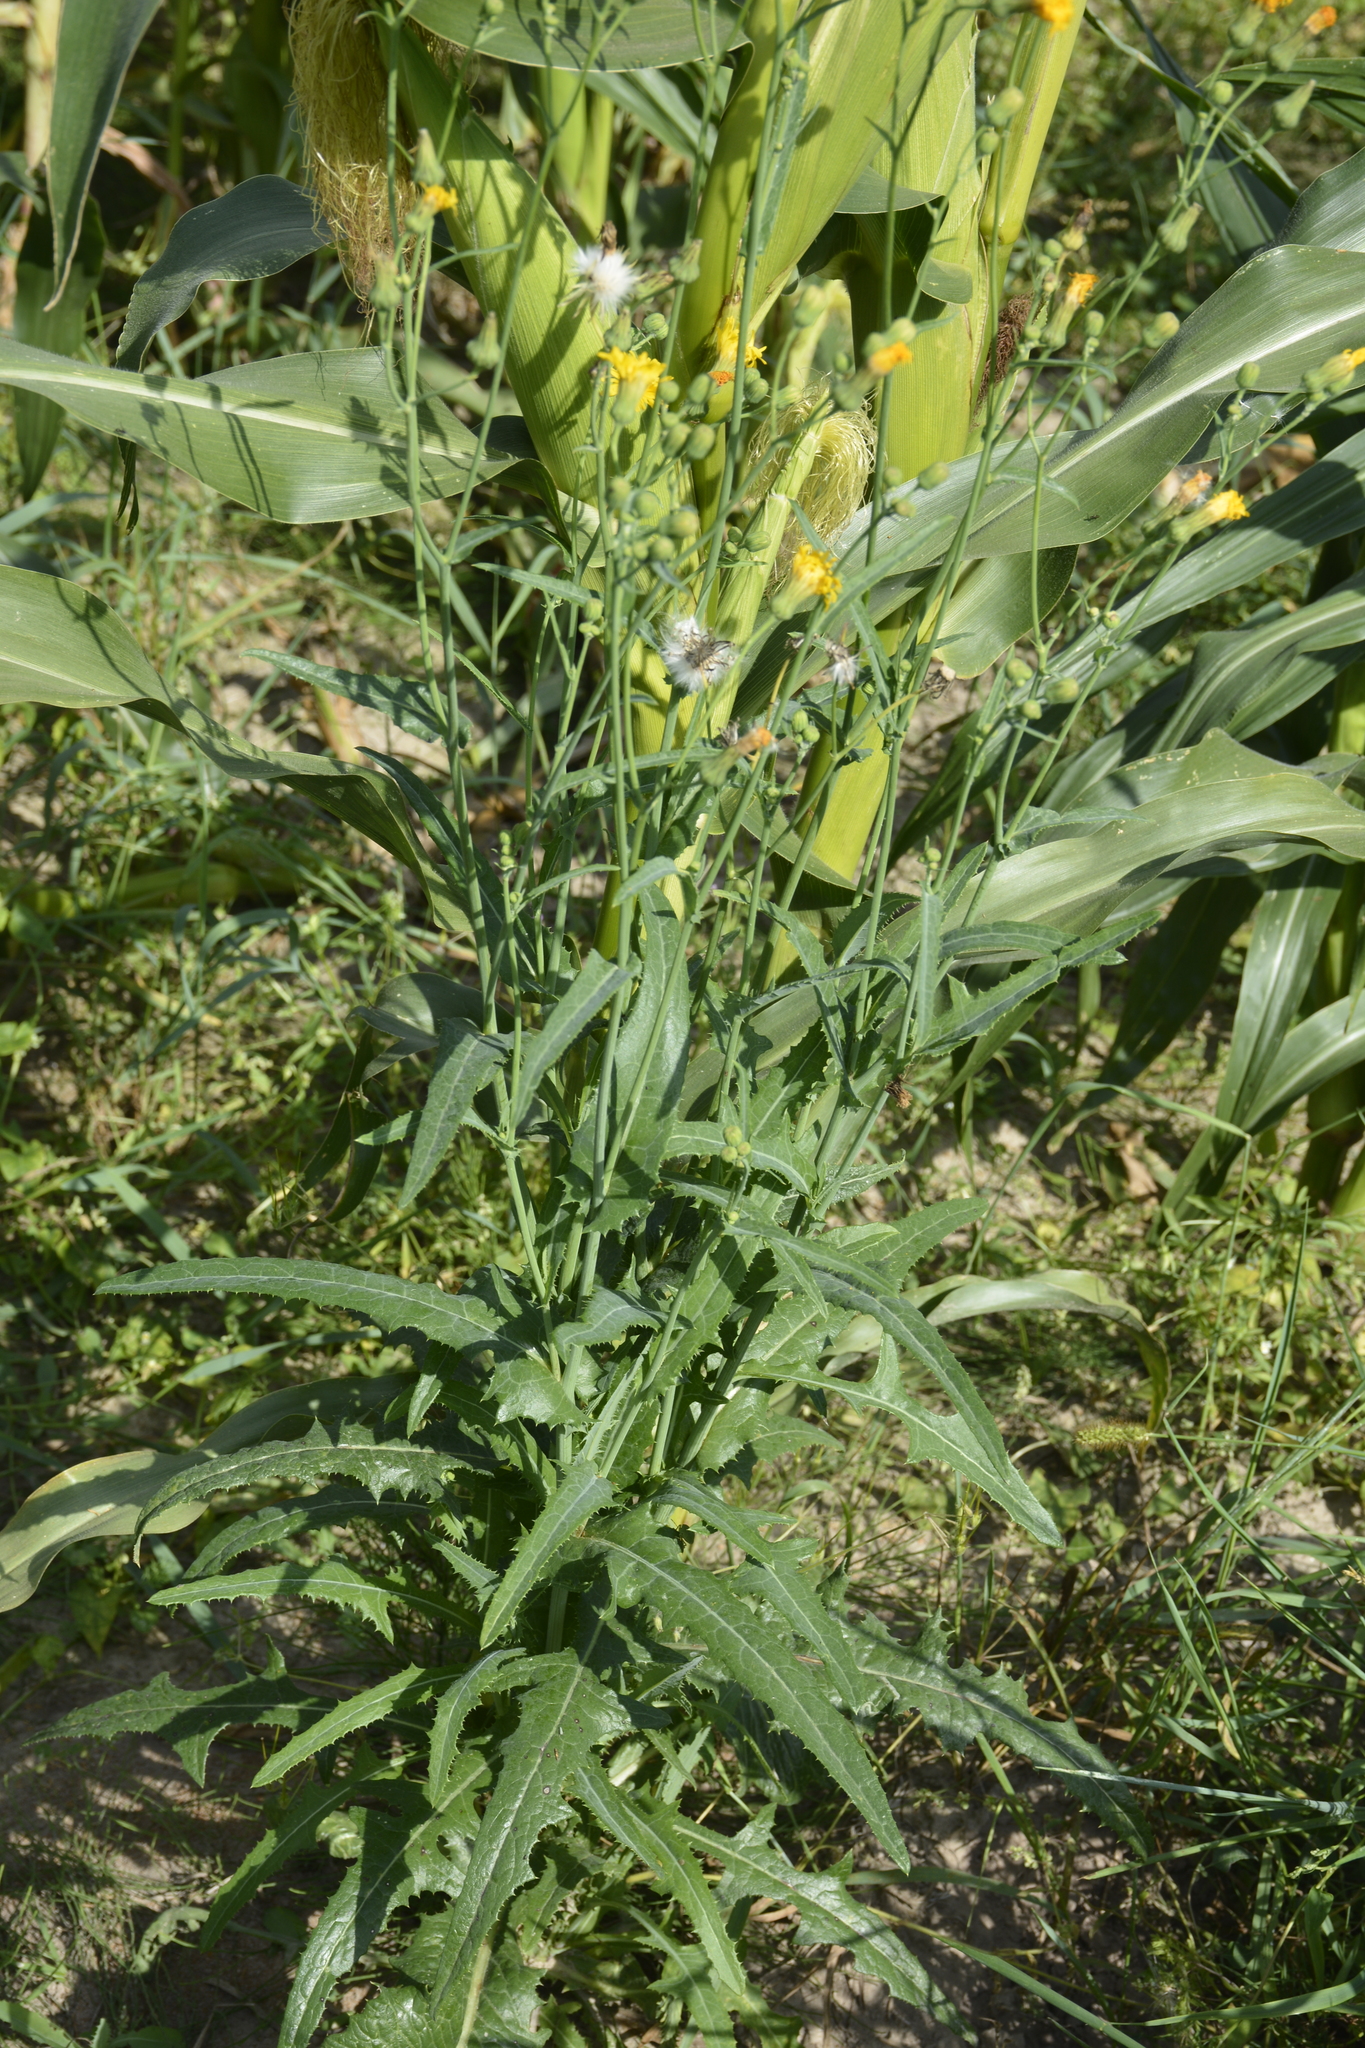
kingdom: Plantae
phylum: Tracheophyta
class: Magnoliopsida
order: Asterales
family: Asteraceae
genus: Sonchus
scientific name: Sonchus arvensis
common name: Perennial sow-thistle
